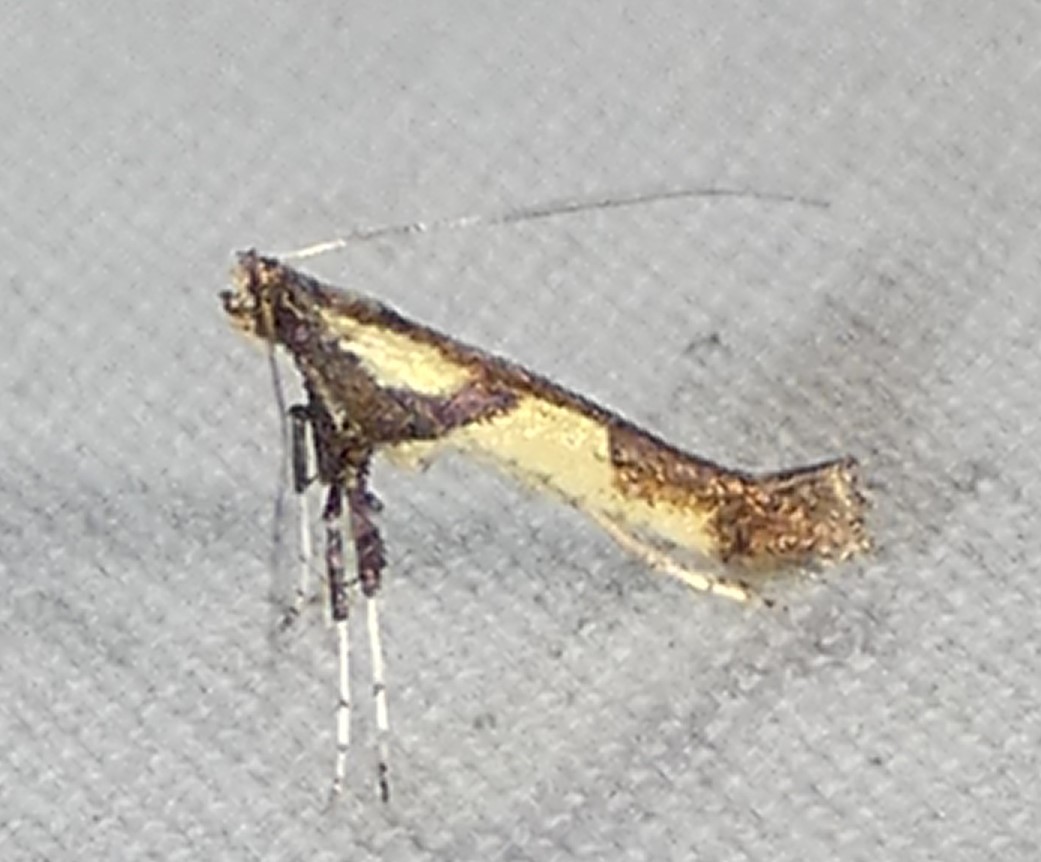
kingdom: Animalia
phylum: Arthropoda
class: Insecta
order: Lepidoptera
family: Gracillariidae
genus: Caloptilia
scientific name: Caloptilia blandella
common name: Walnut caloptilia moth
